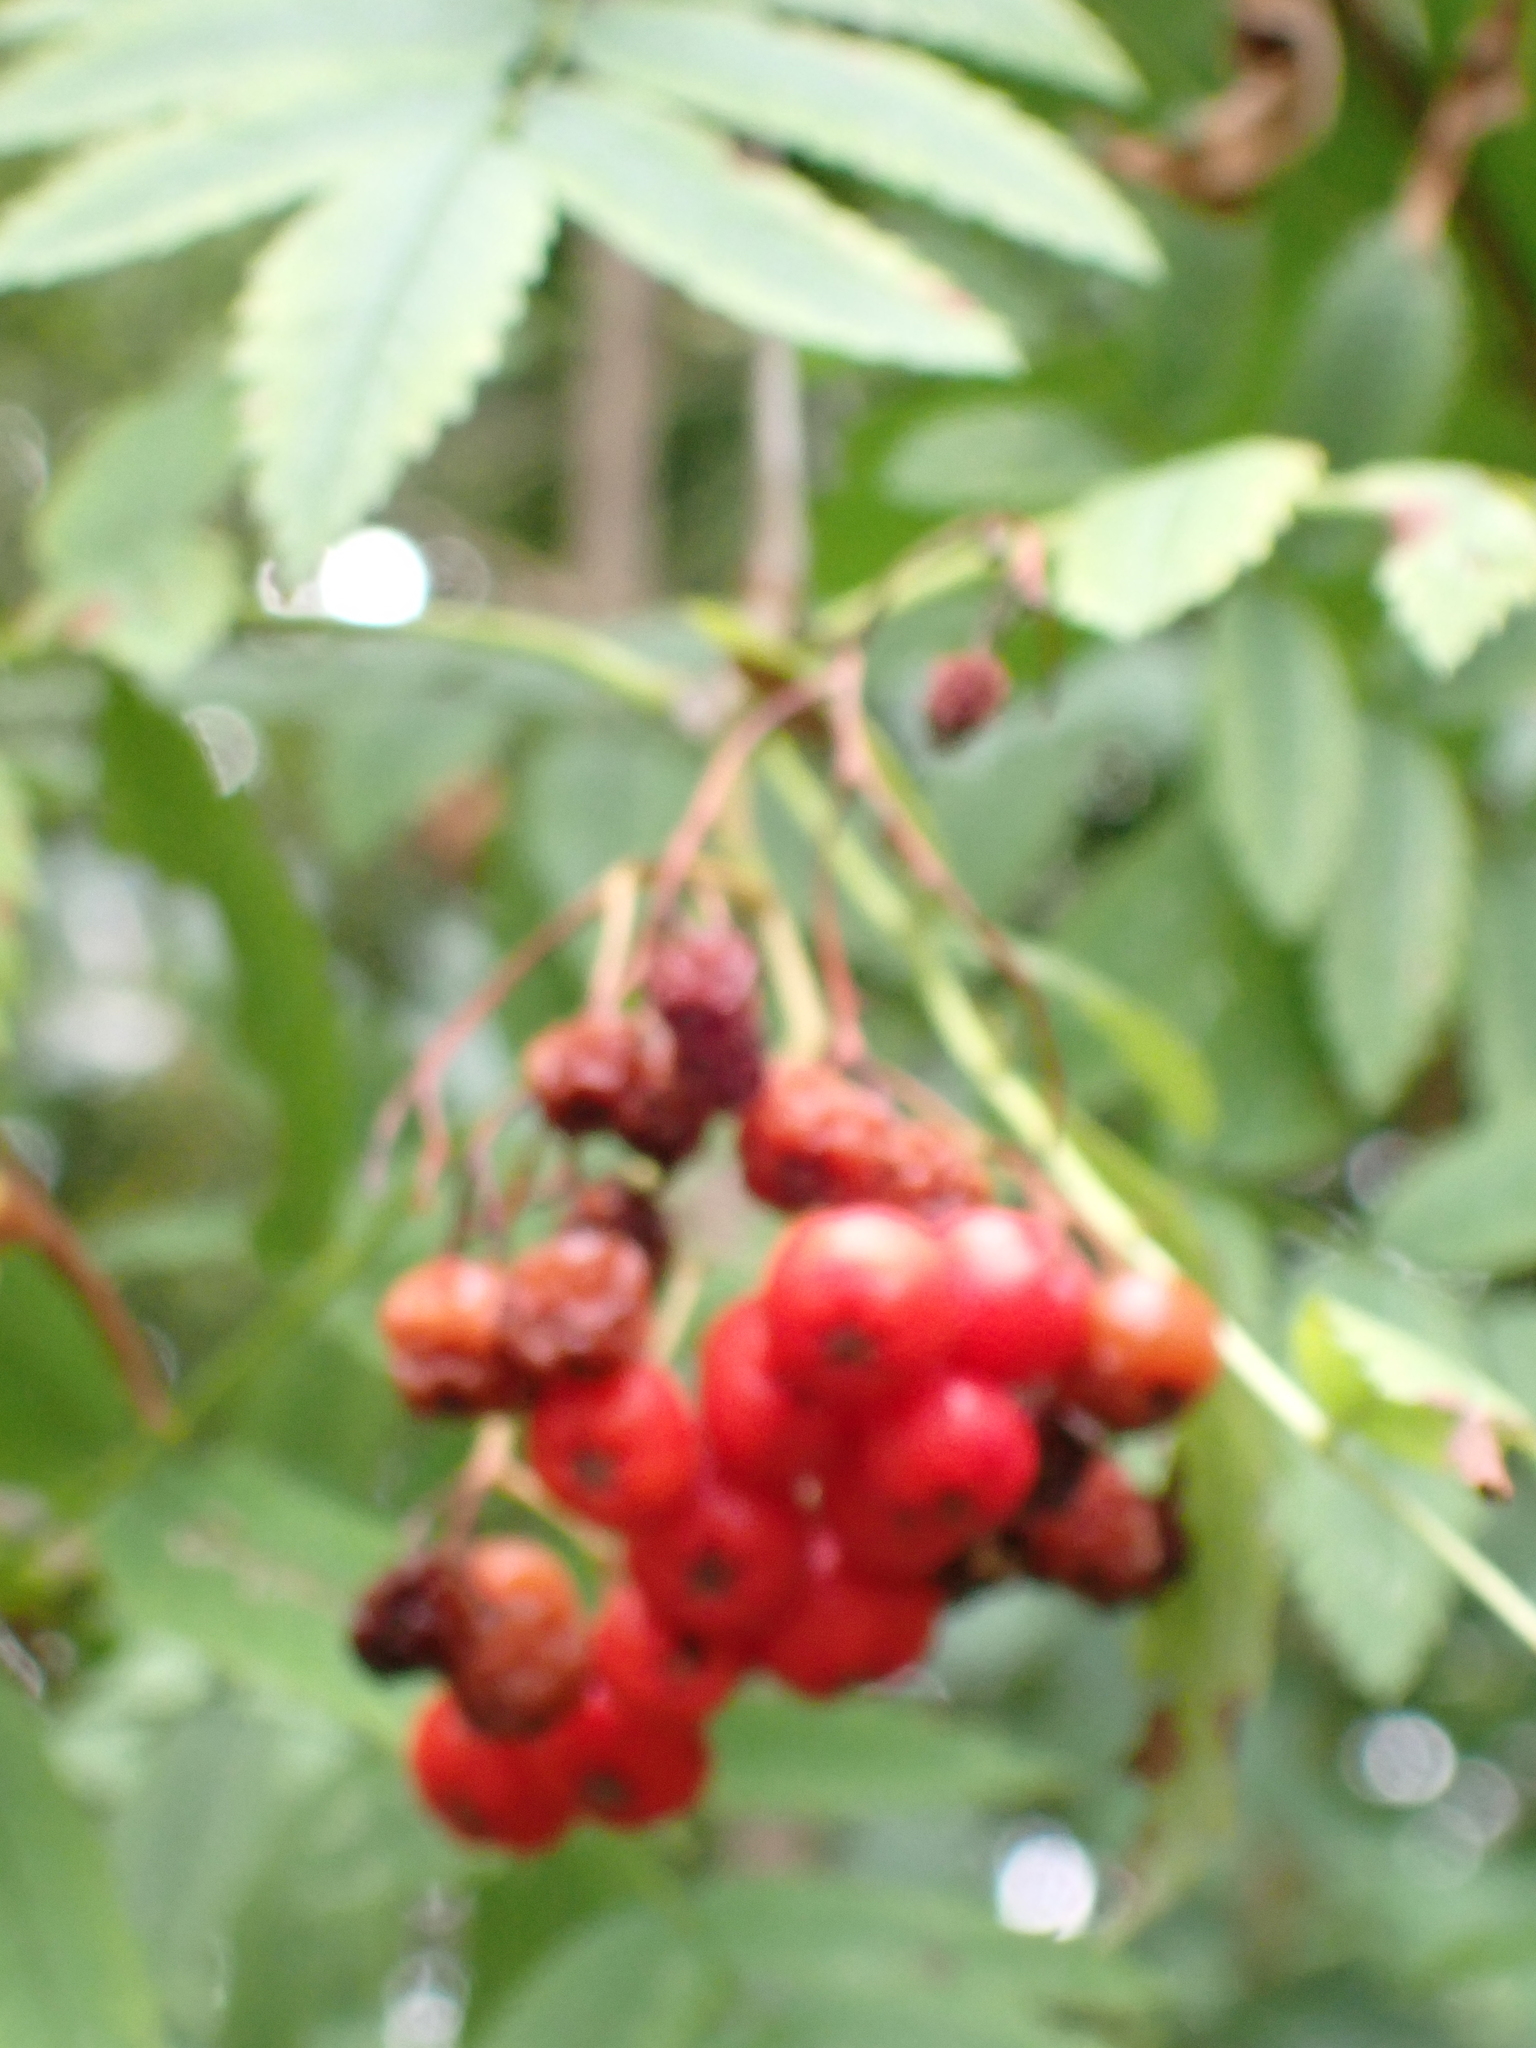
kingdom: Plantae
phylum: Tracheophyta
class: Magnoliopsida
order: Rosales
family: Rosaceae
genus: Sorbus
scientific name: Sorbus aucuparia
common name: Rowan
